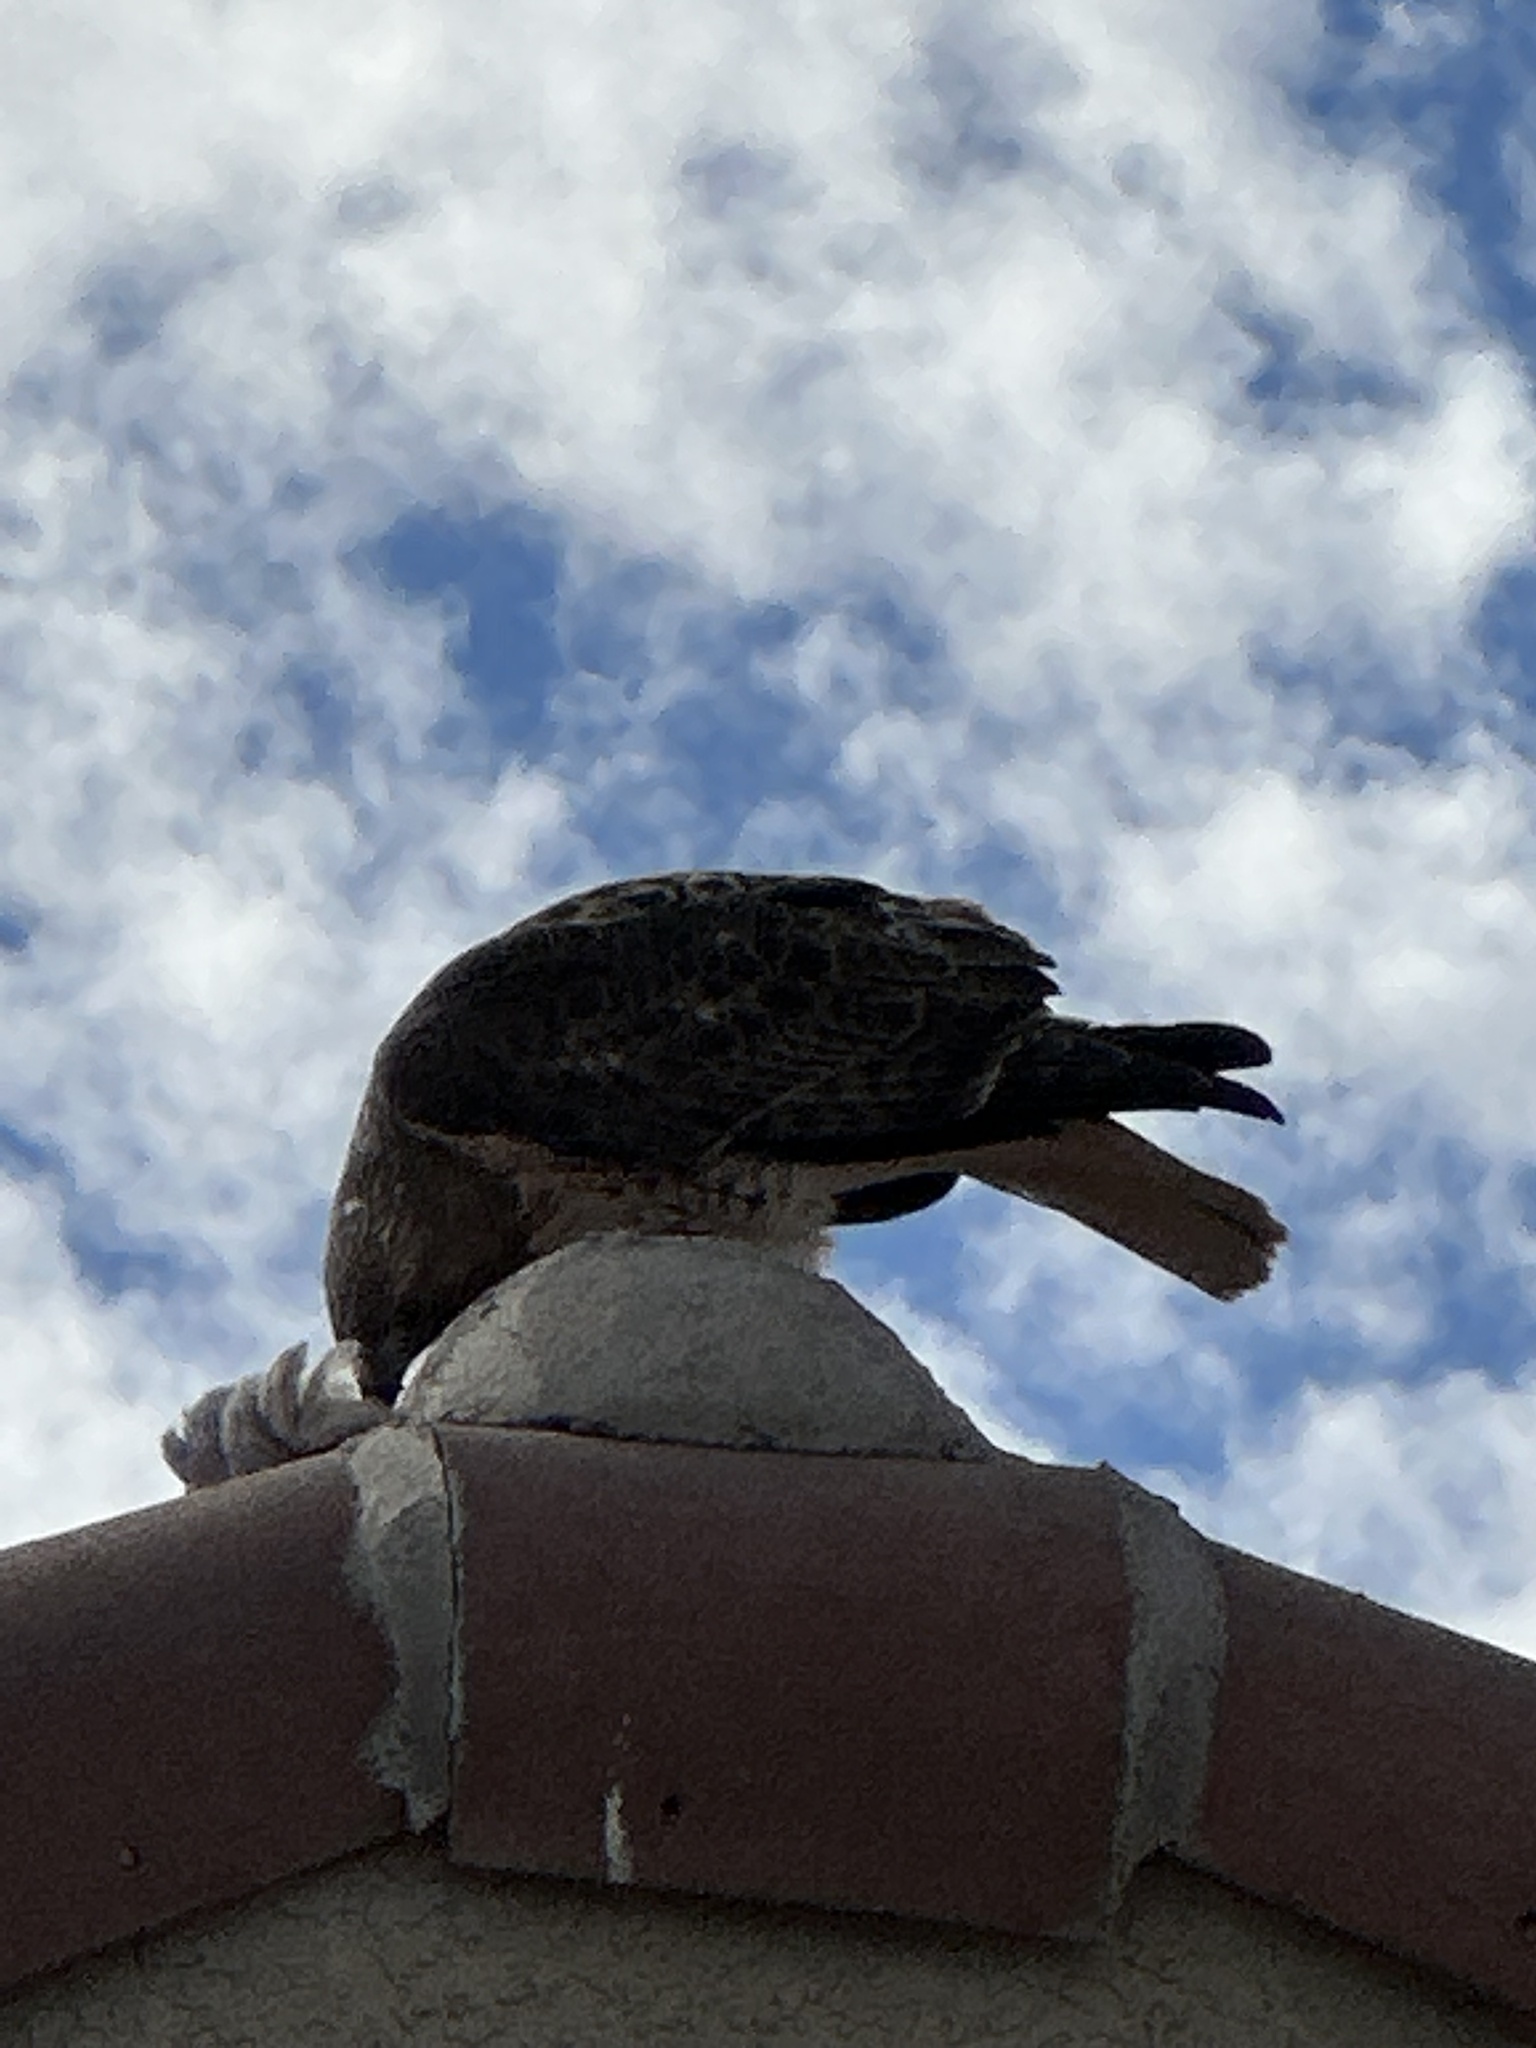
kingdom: Animalia
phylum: Chordata
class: Aves
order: Accipitriformes
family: Accipitridae
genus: Buteo
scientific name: Buteo jamaicensis
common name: Red-tailed hawk
